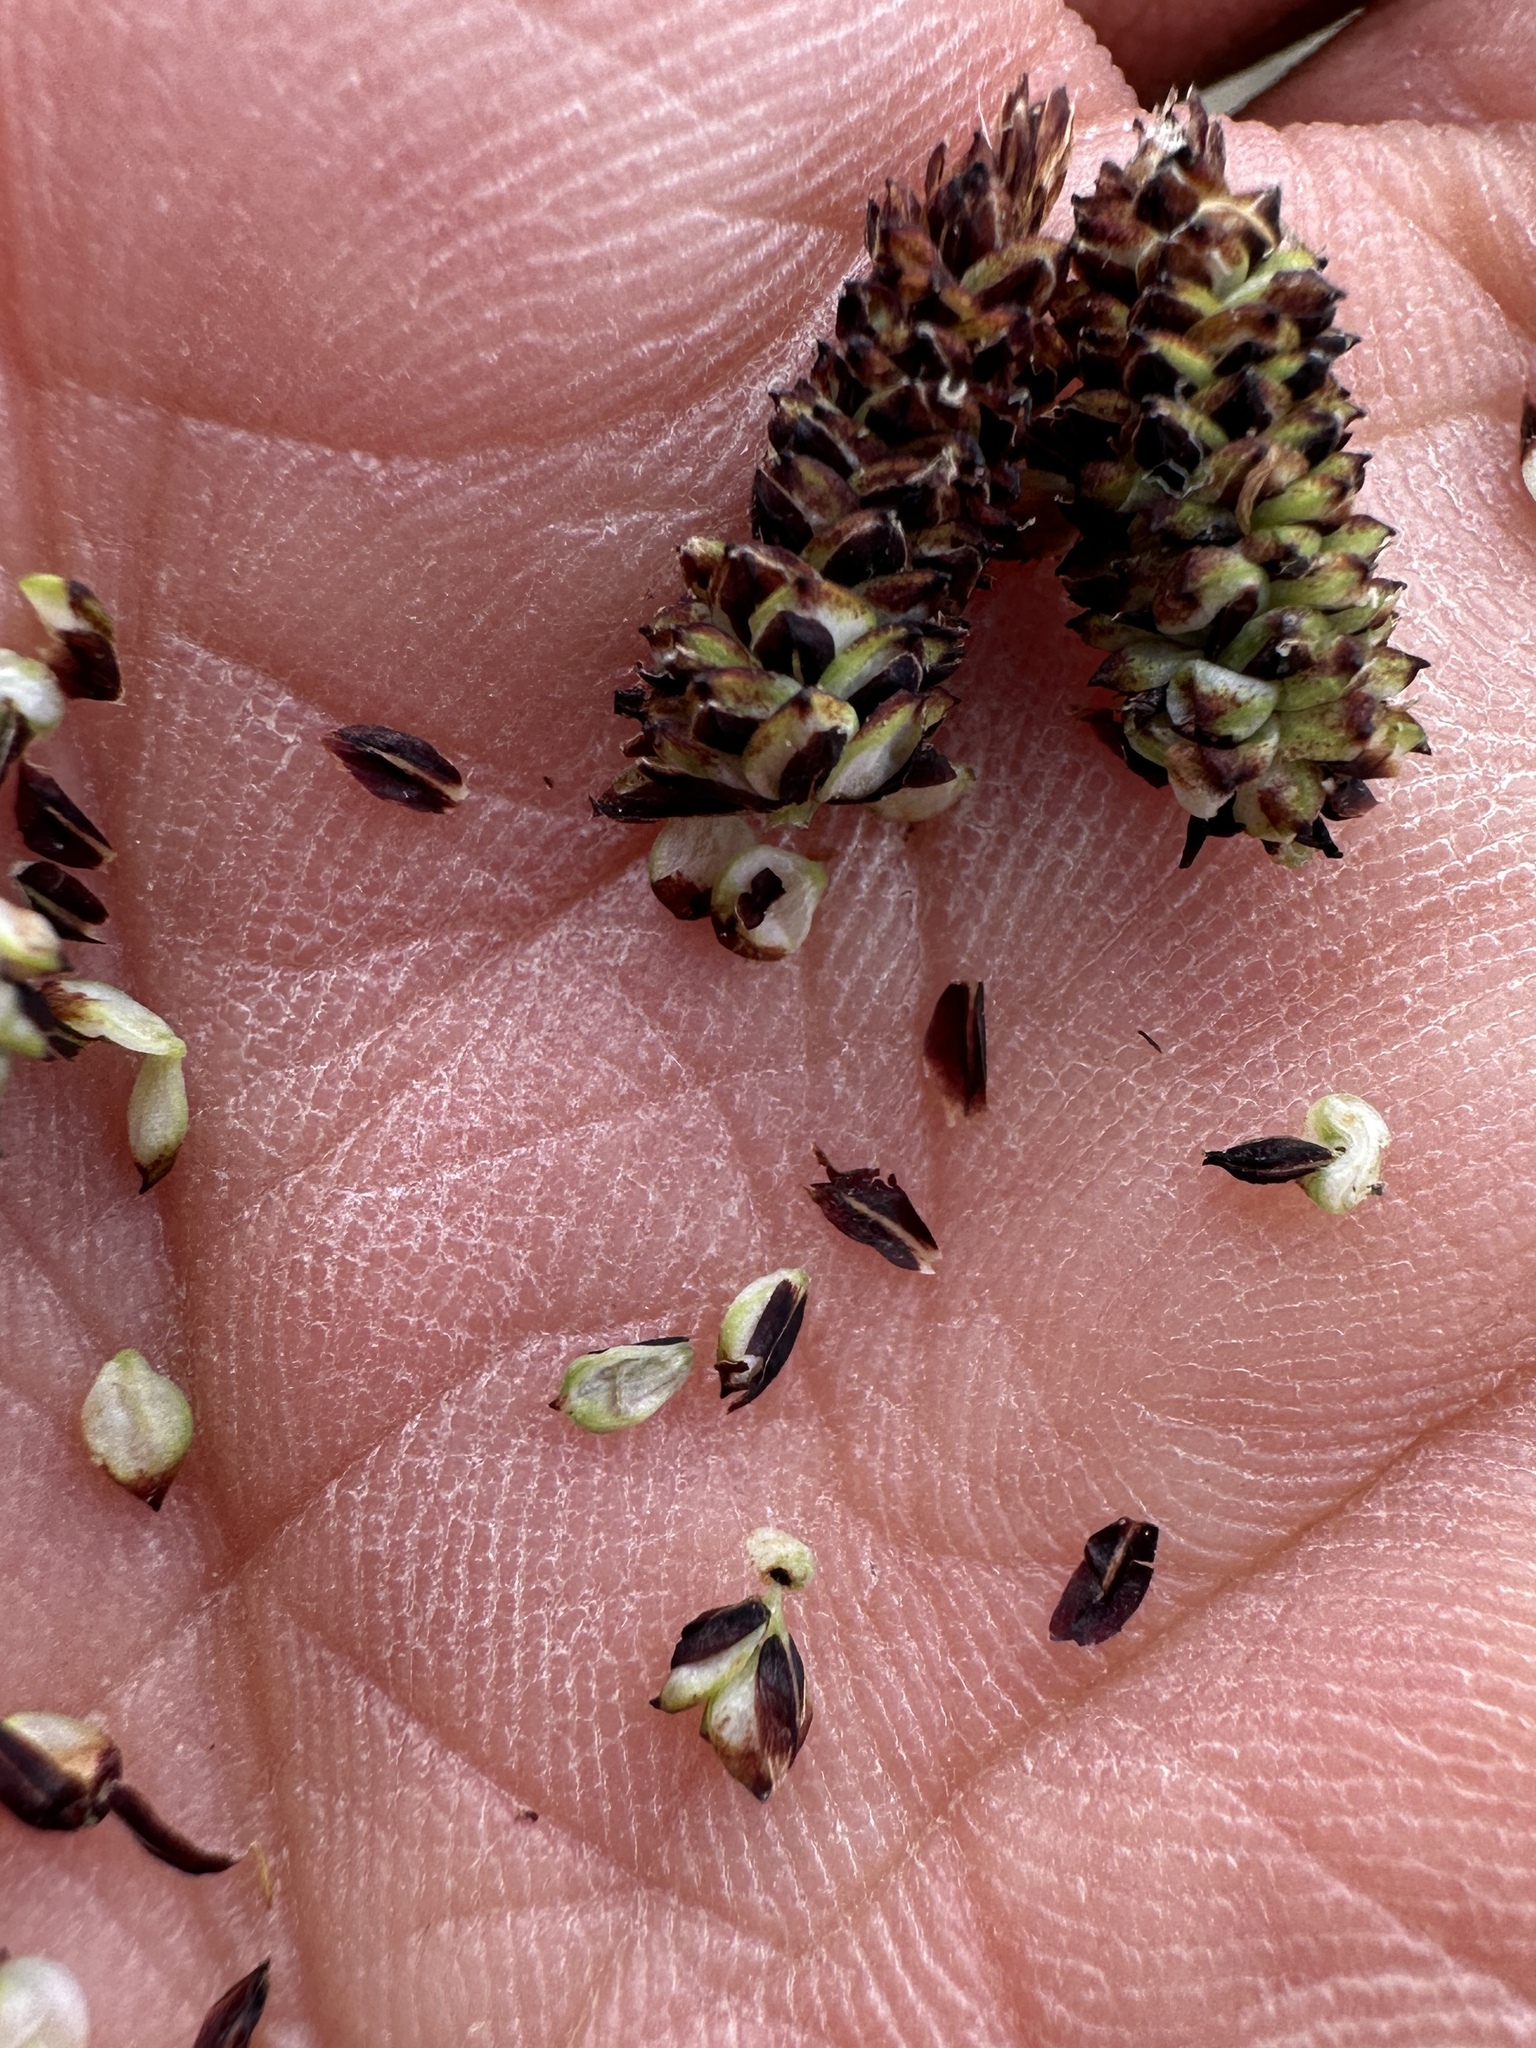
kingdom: Plantae
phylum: Tracheophyta
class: Liliopsida
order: Poales
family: Cyperaceae
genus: Carex
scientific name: Carex scopulorum
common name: Holm's rocky mountain sedge
